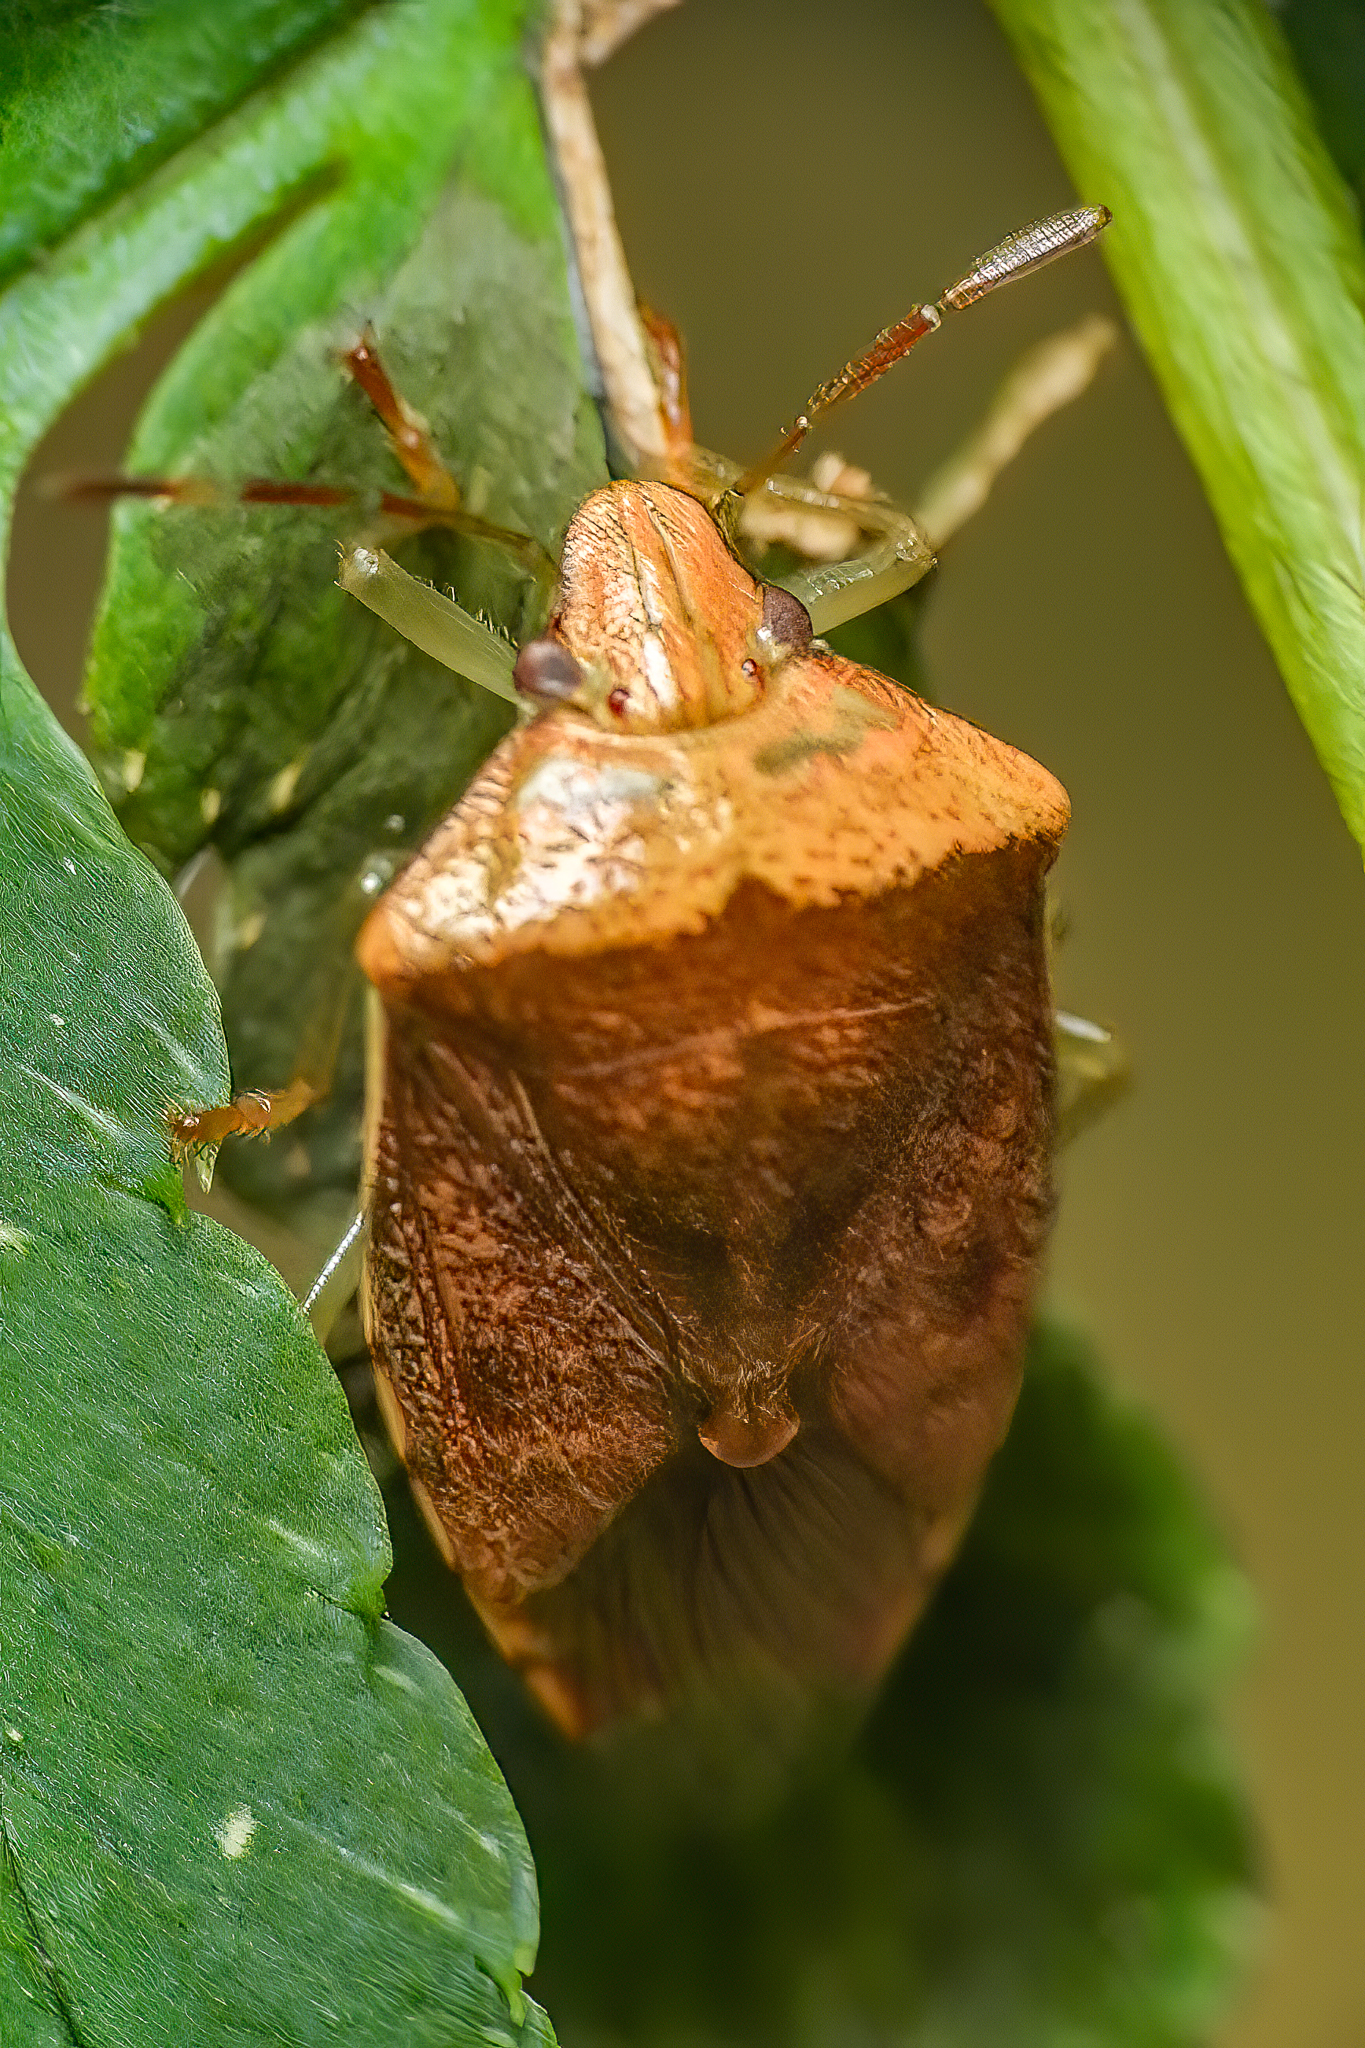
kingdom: Animalia
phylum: Arthropoda
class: Insecta
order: Hemiptera
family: Pentatomidae
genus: Banasa
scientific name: Banasa calva
